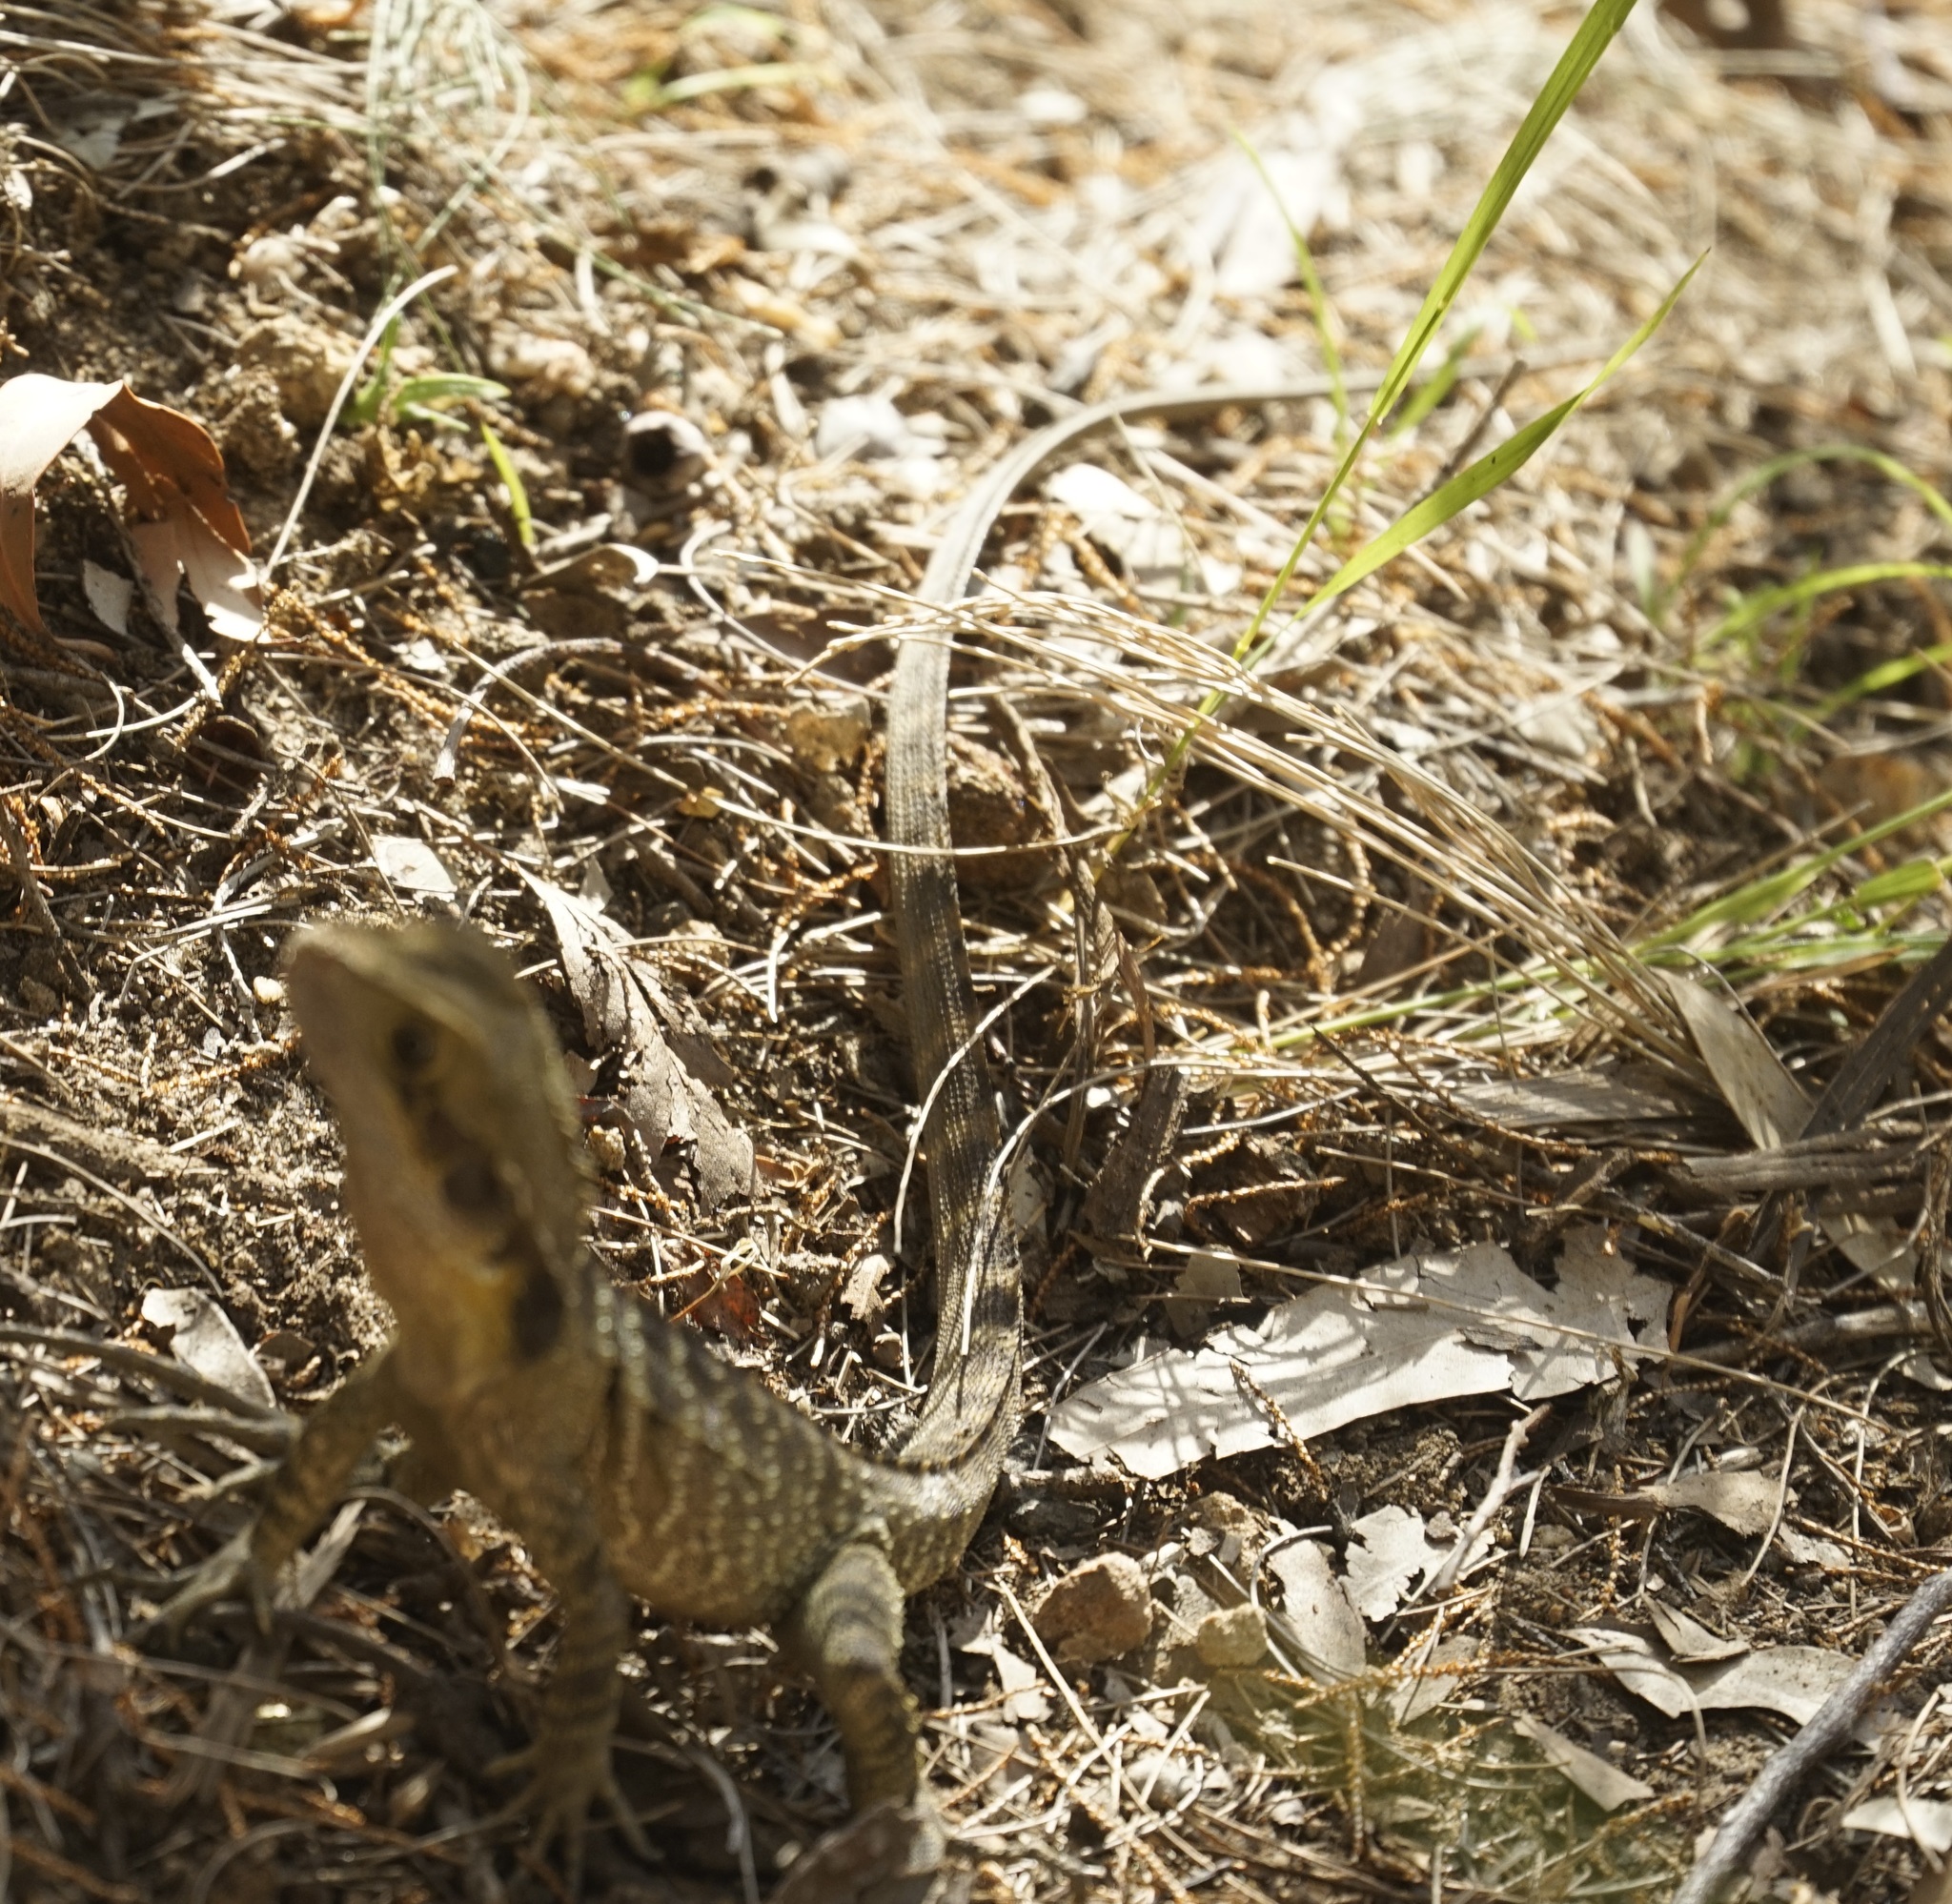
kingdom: Animalia
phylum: Chordata
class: Squamata
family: Agamidae
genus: Intellagama
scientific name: Intellagama lesueurii
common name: Eastern water dragon
